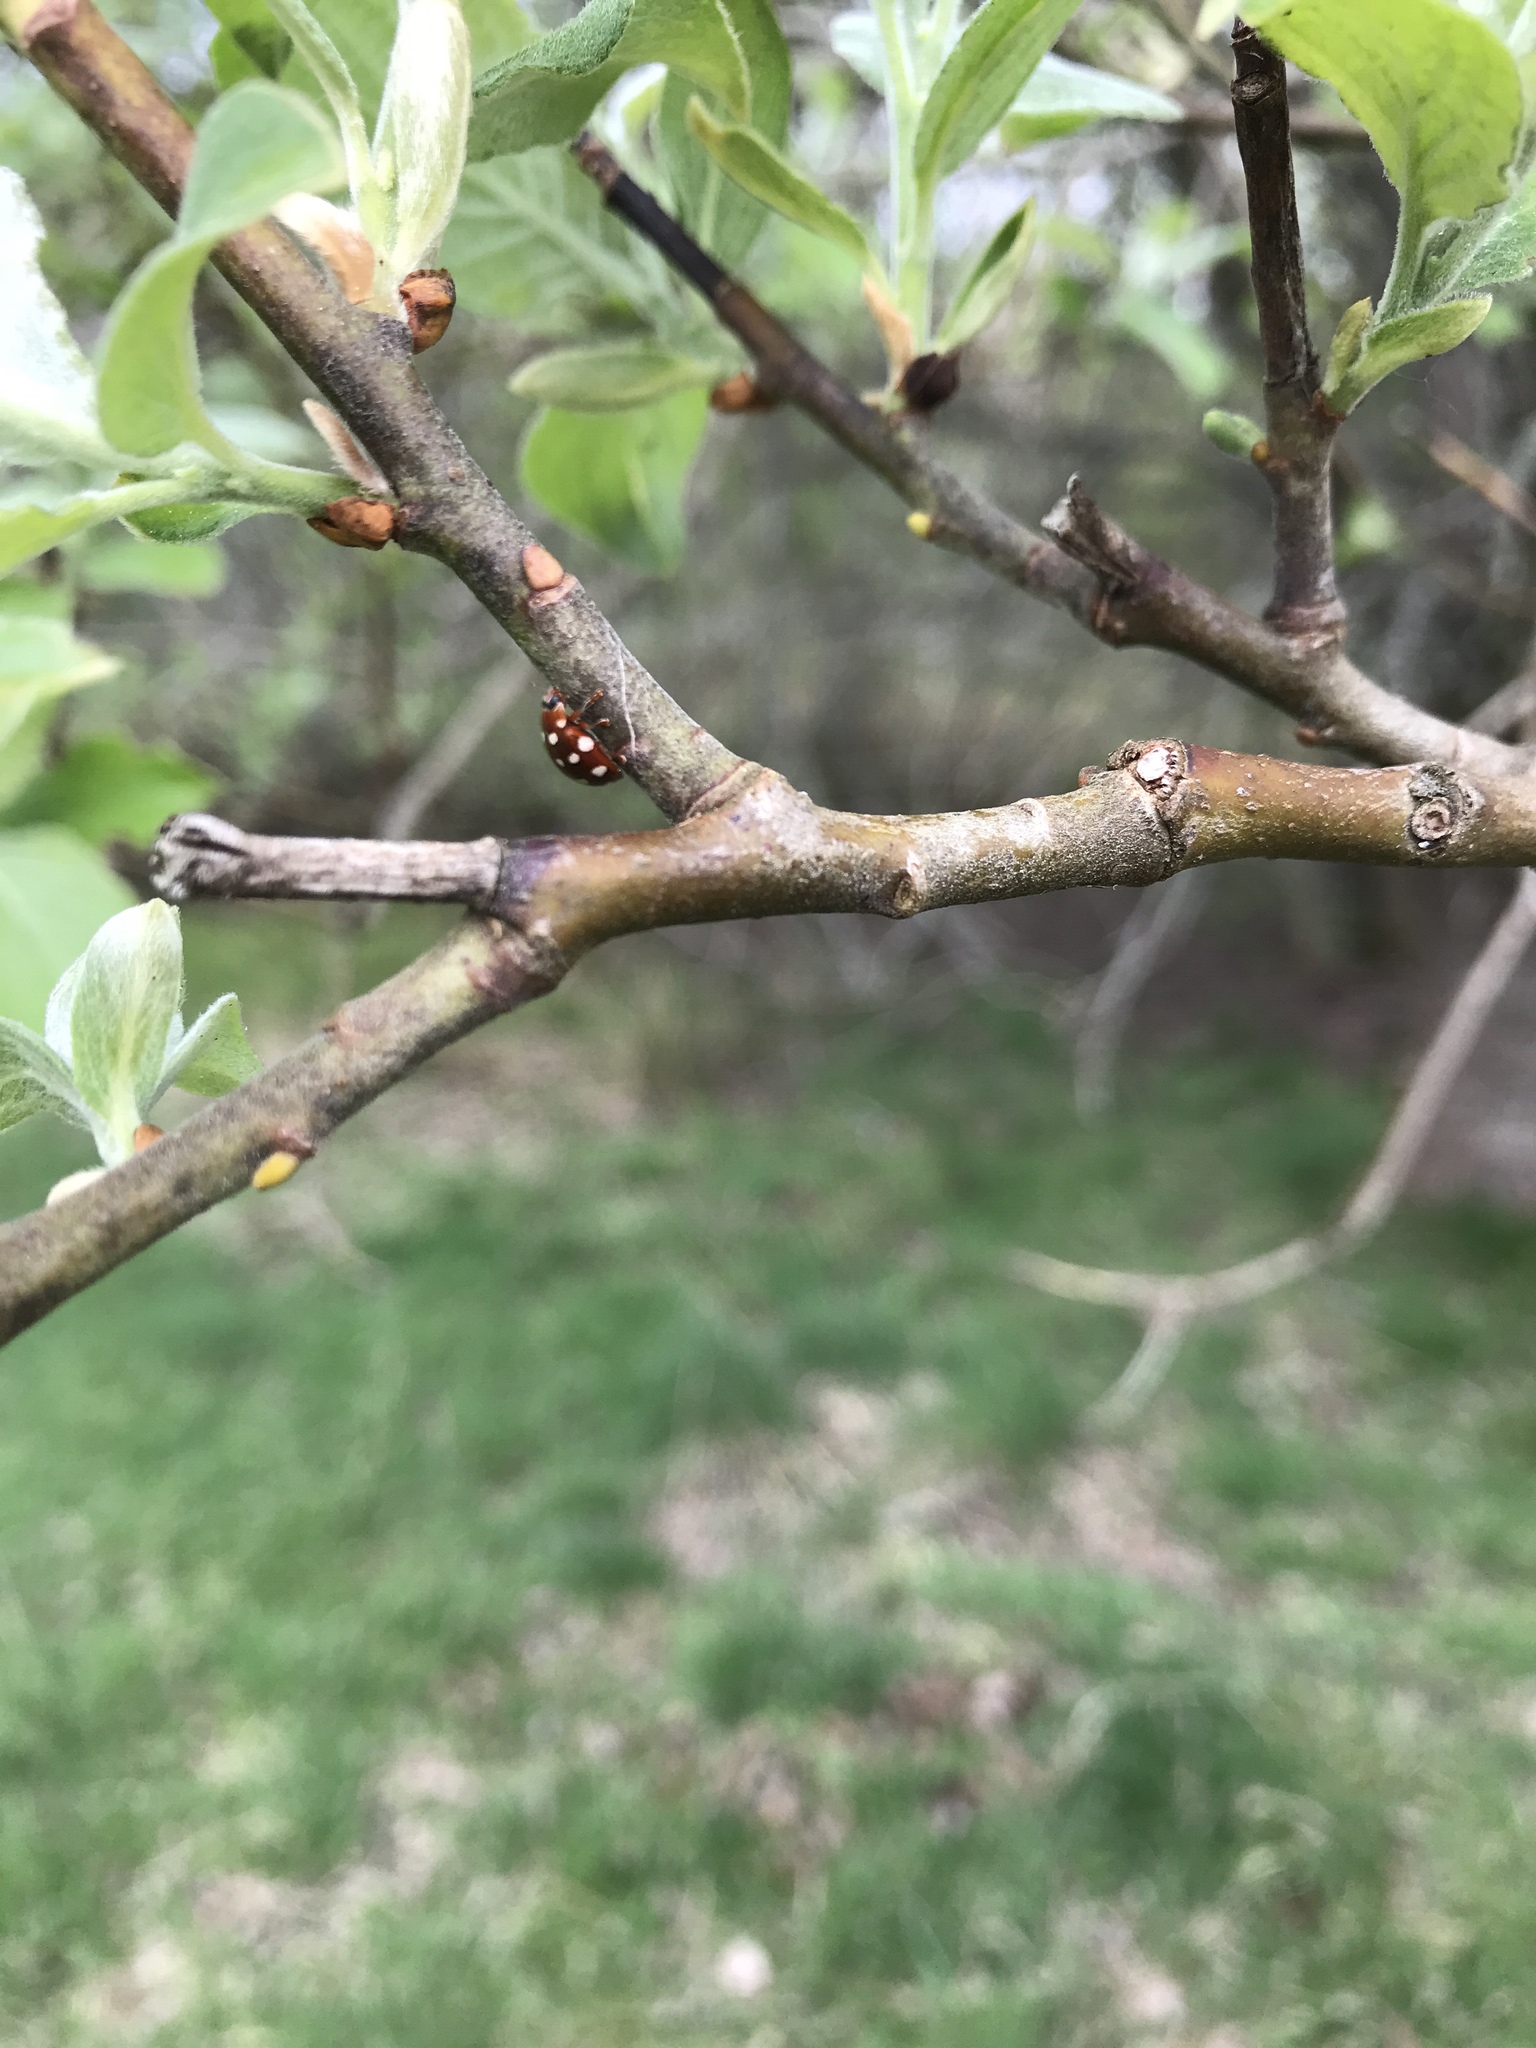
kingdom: Animalia
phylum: Arthropoda
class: Insecta
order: Coleoptera
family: Coccinellidae
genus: Calvia
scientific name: Calvia quatuordecimguttata
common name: Cream-spot ladybird
